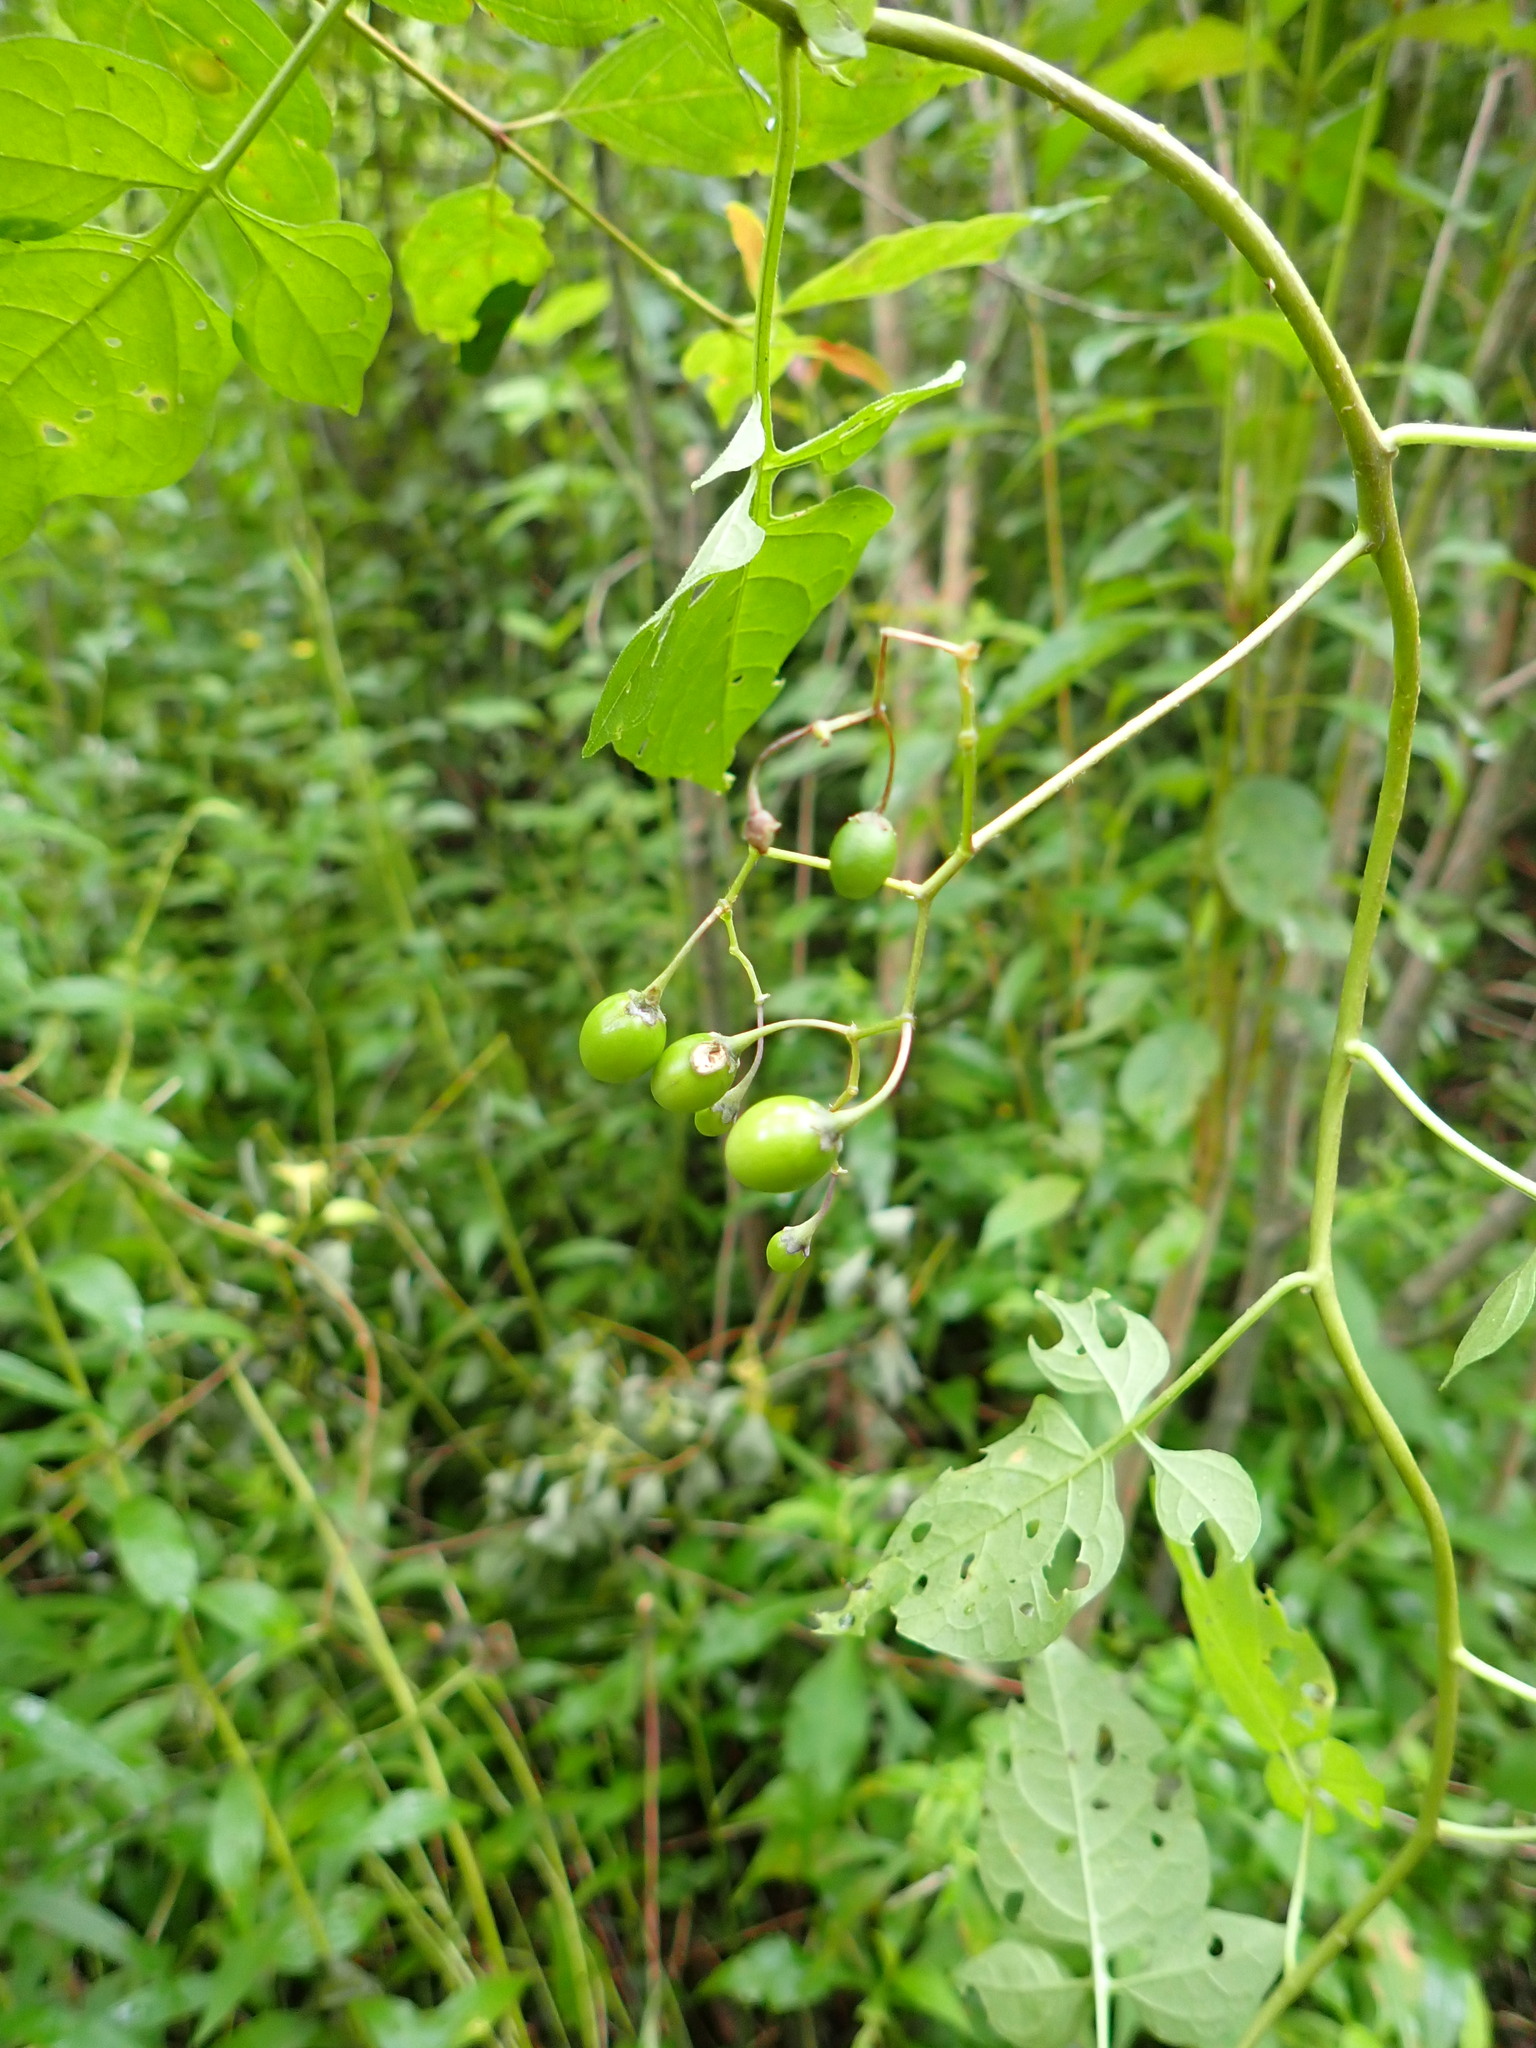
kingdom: Plantae
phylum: Tracheophyta
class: Magnoliopsida
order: Solanales
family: Solanaceae
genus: Solanum
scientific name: Solanum dulcamara
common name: Climbing nightshade
